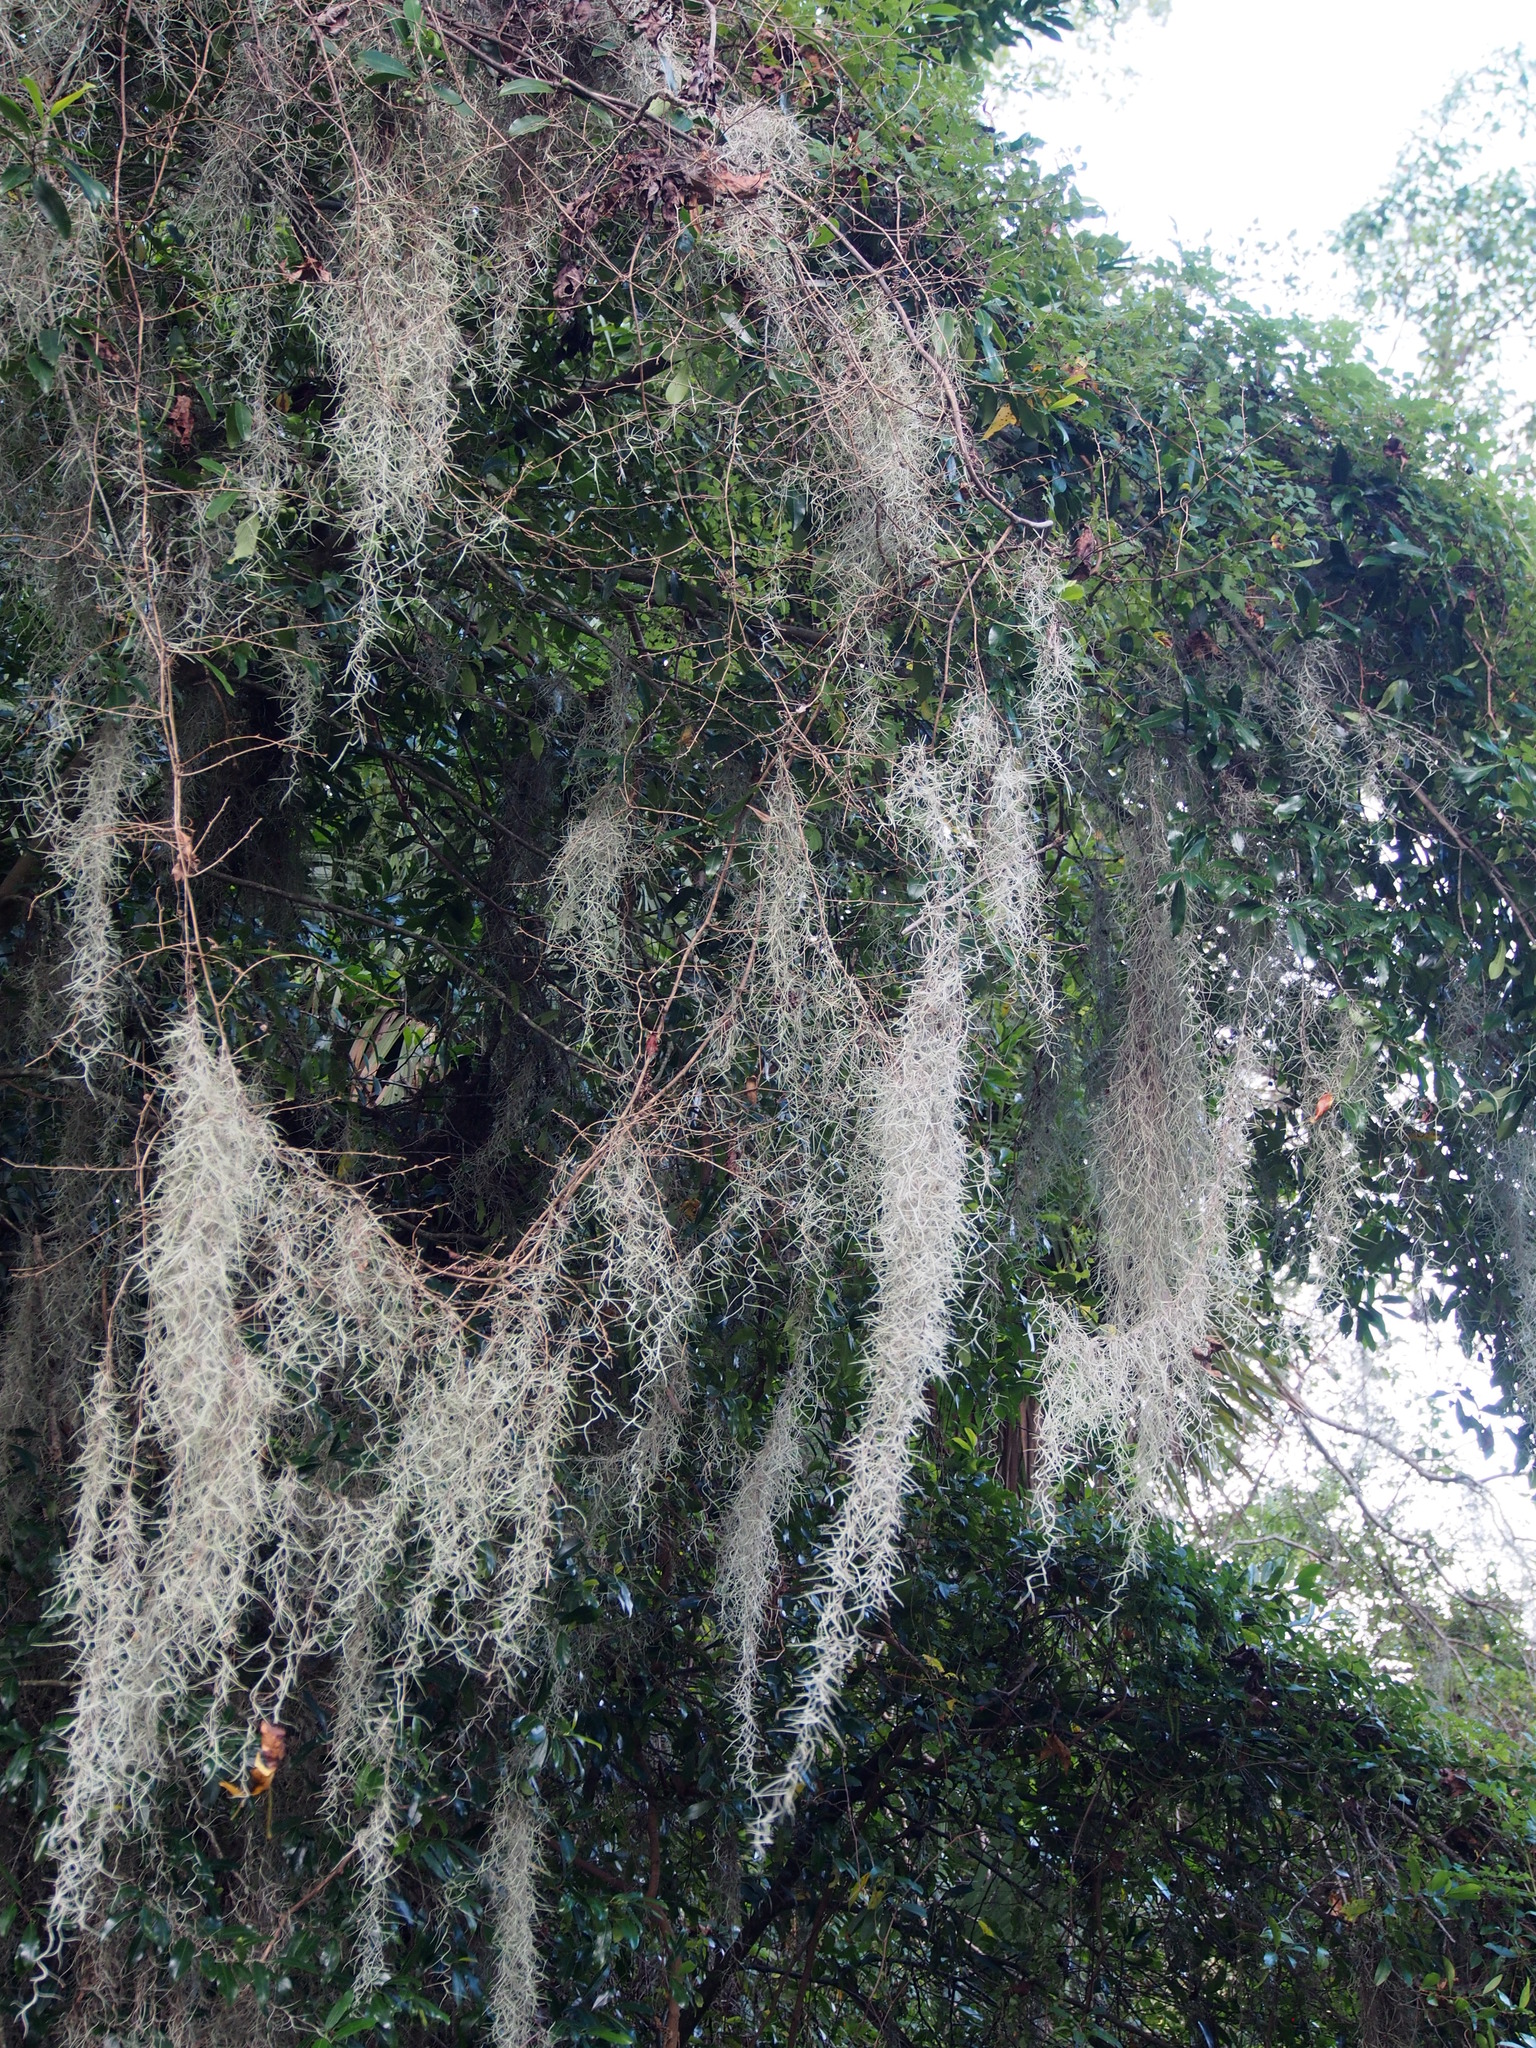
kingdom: Plantae
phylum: Tracheophyta
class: Liliopsida
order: Poales
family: Bromeliaceae
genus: Tillandsia
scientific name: Tillandsia usneoides
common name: Spanish moss
